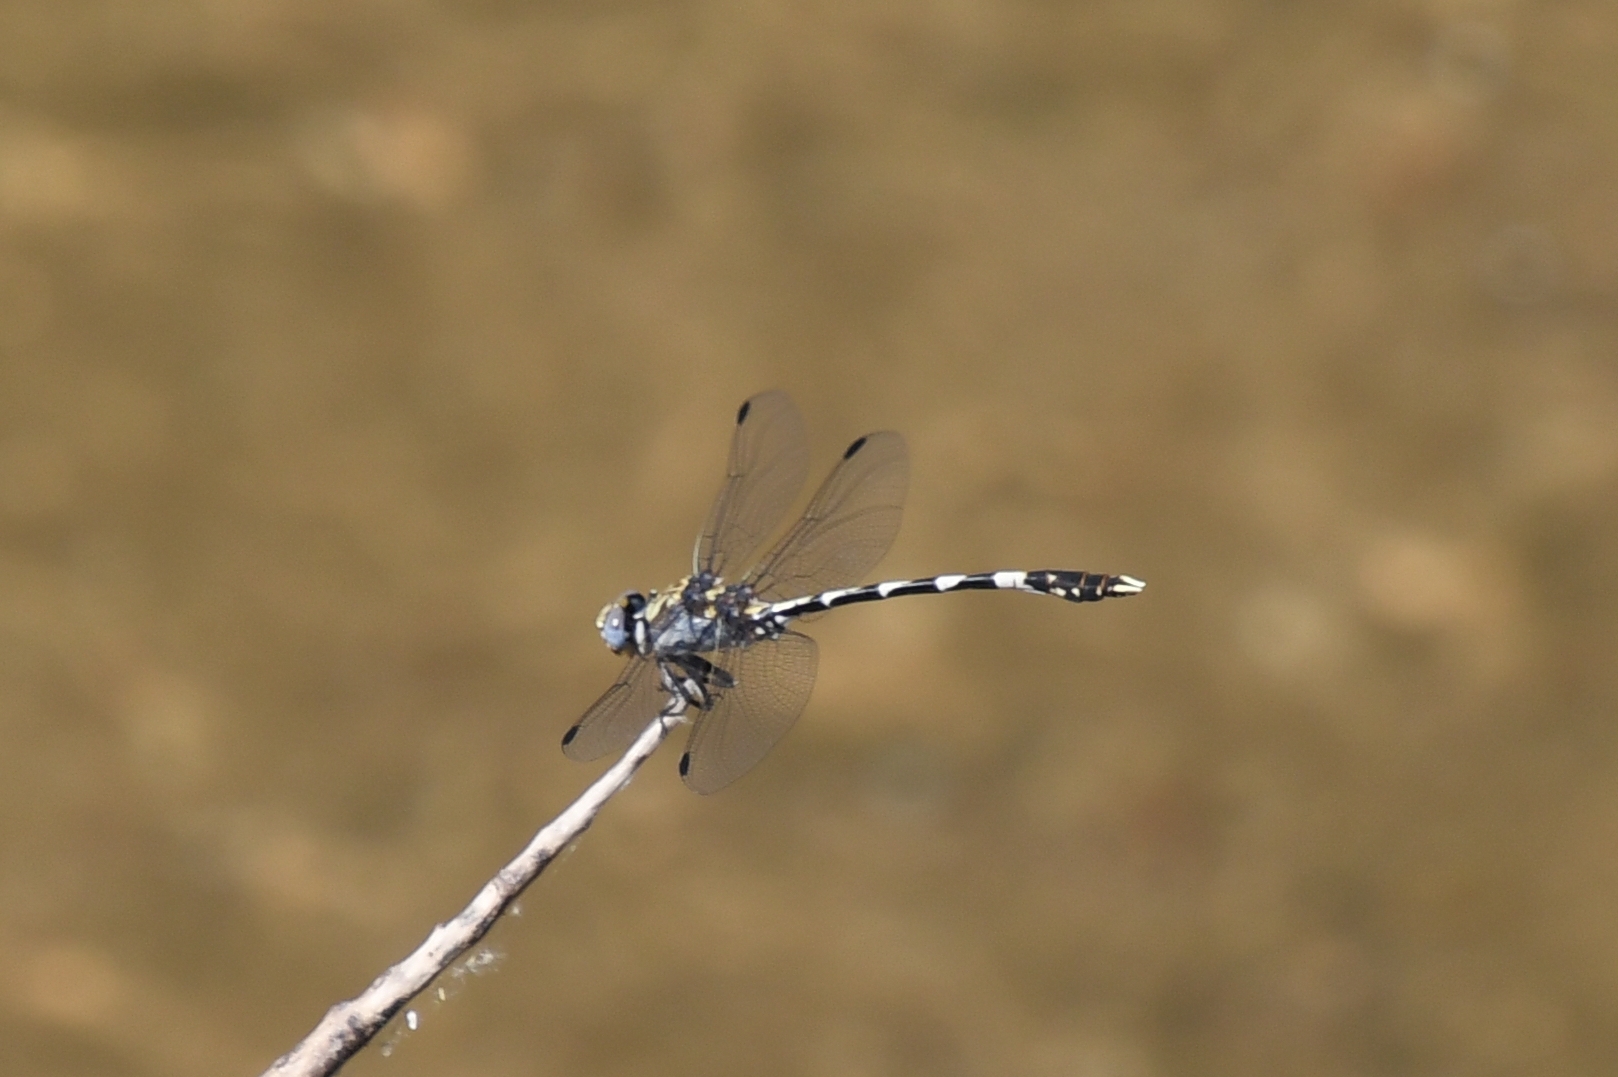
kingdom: Animalia
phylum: Arthropoda
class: Insecta
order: Odonata
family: Gomphidae
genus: Progomphus
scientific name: Progomphus borealis
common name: Gray sanddragon
